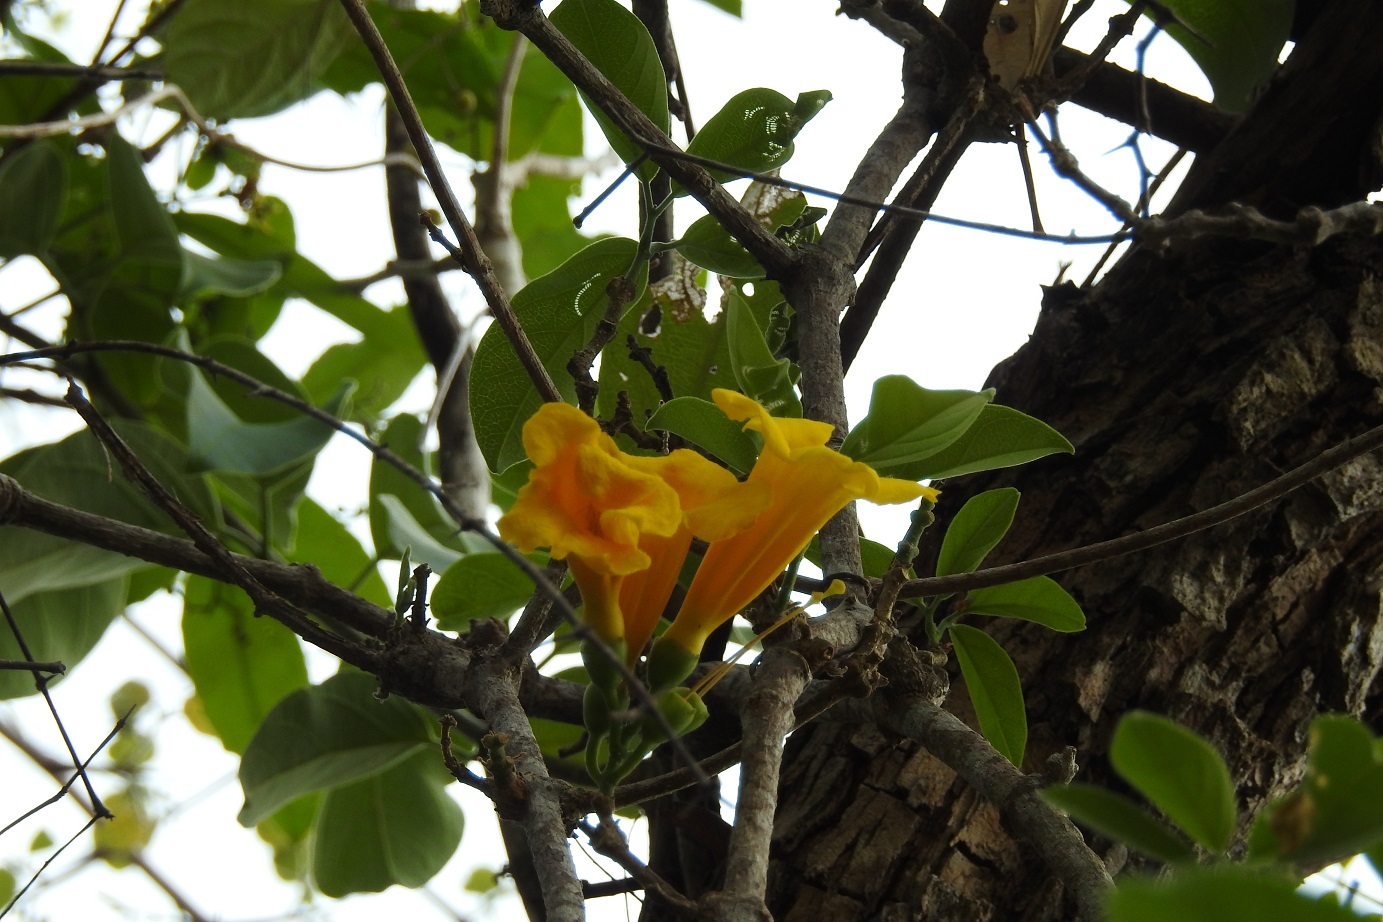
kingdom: Plantae
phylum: Tracheophyta
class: Magnoliopsida
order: Lamiales
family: Bignoniaceae
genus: Anemopaegma
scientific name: Anemopaegma chrysanthum
